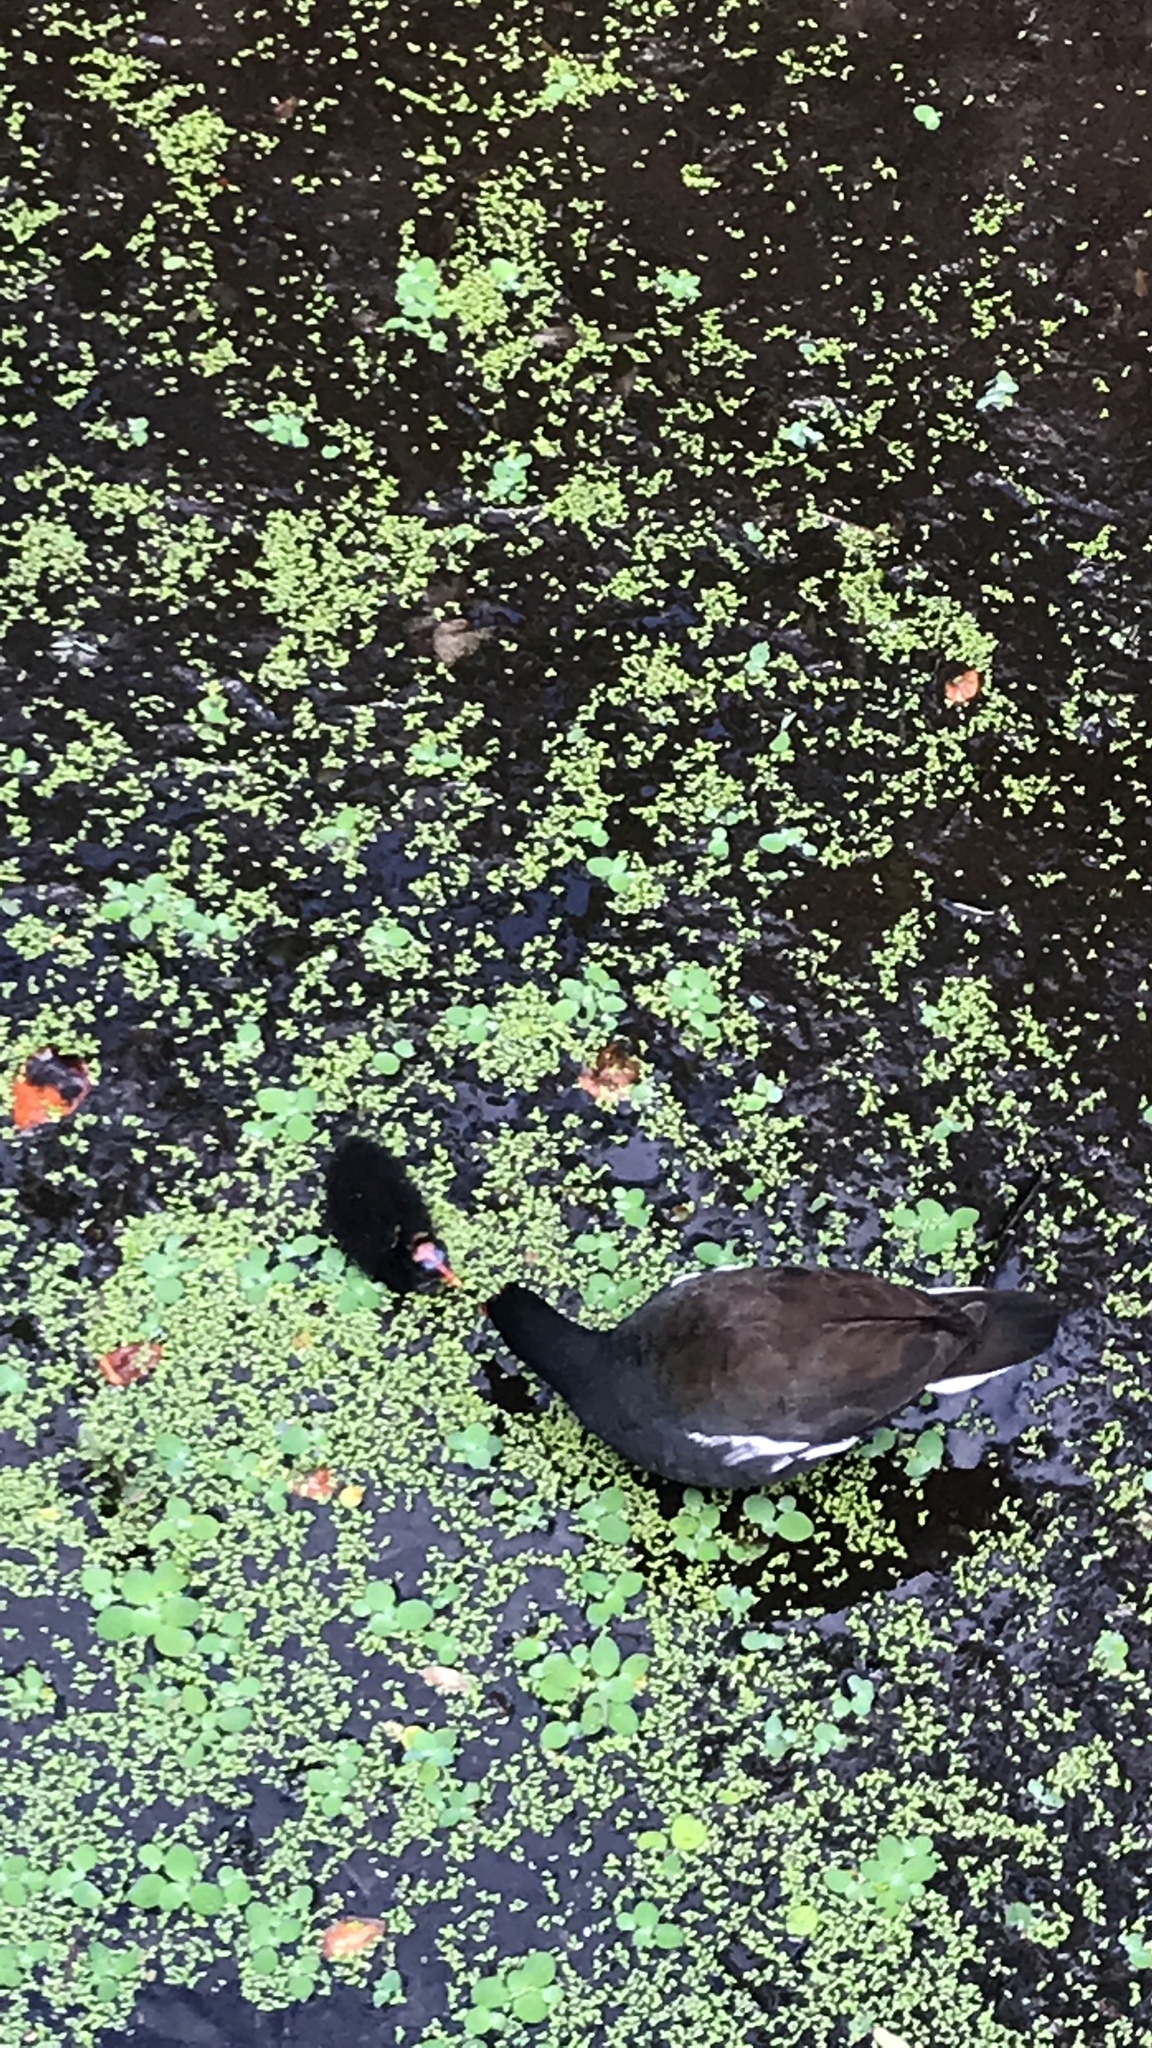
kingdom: Animalia
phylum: Chordata
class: Aves
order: Gruiformes
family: Rallidae
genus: Gallinula
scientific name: Gallinula chloropus
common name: Common moorhen
